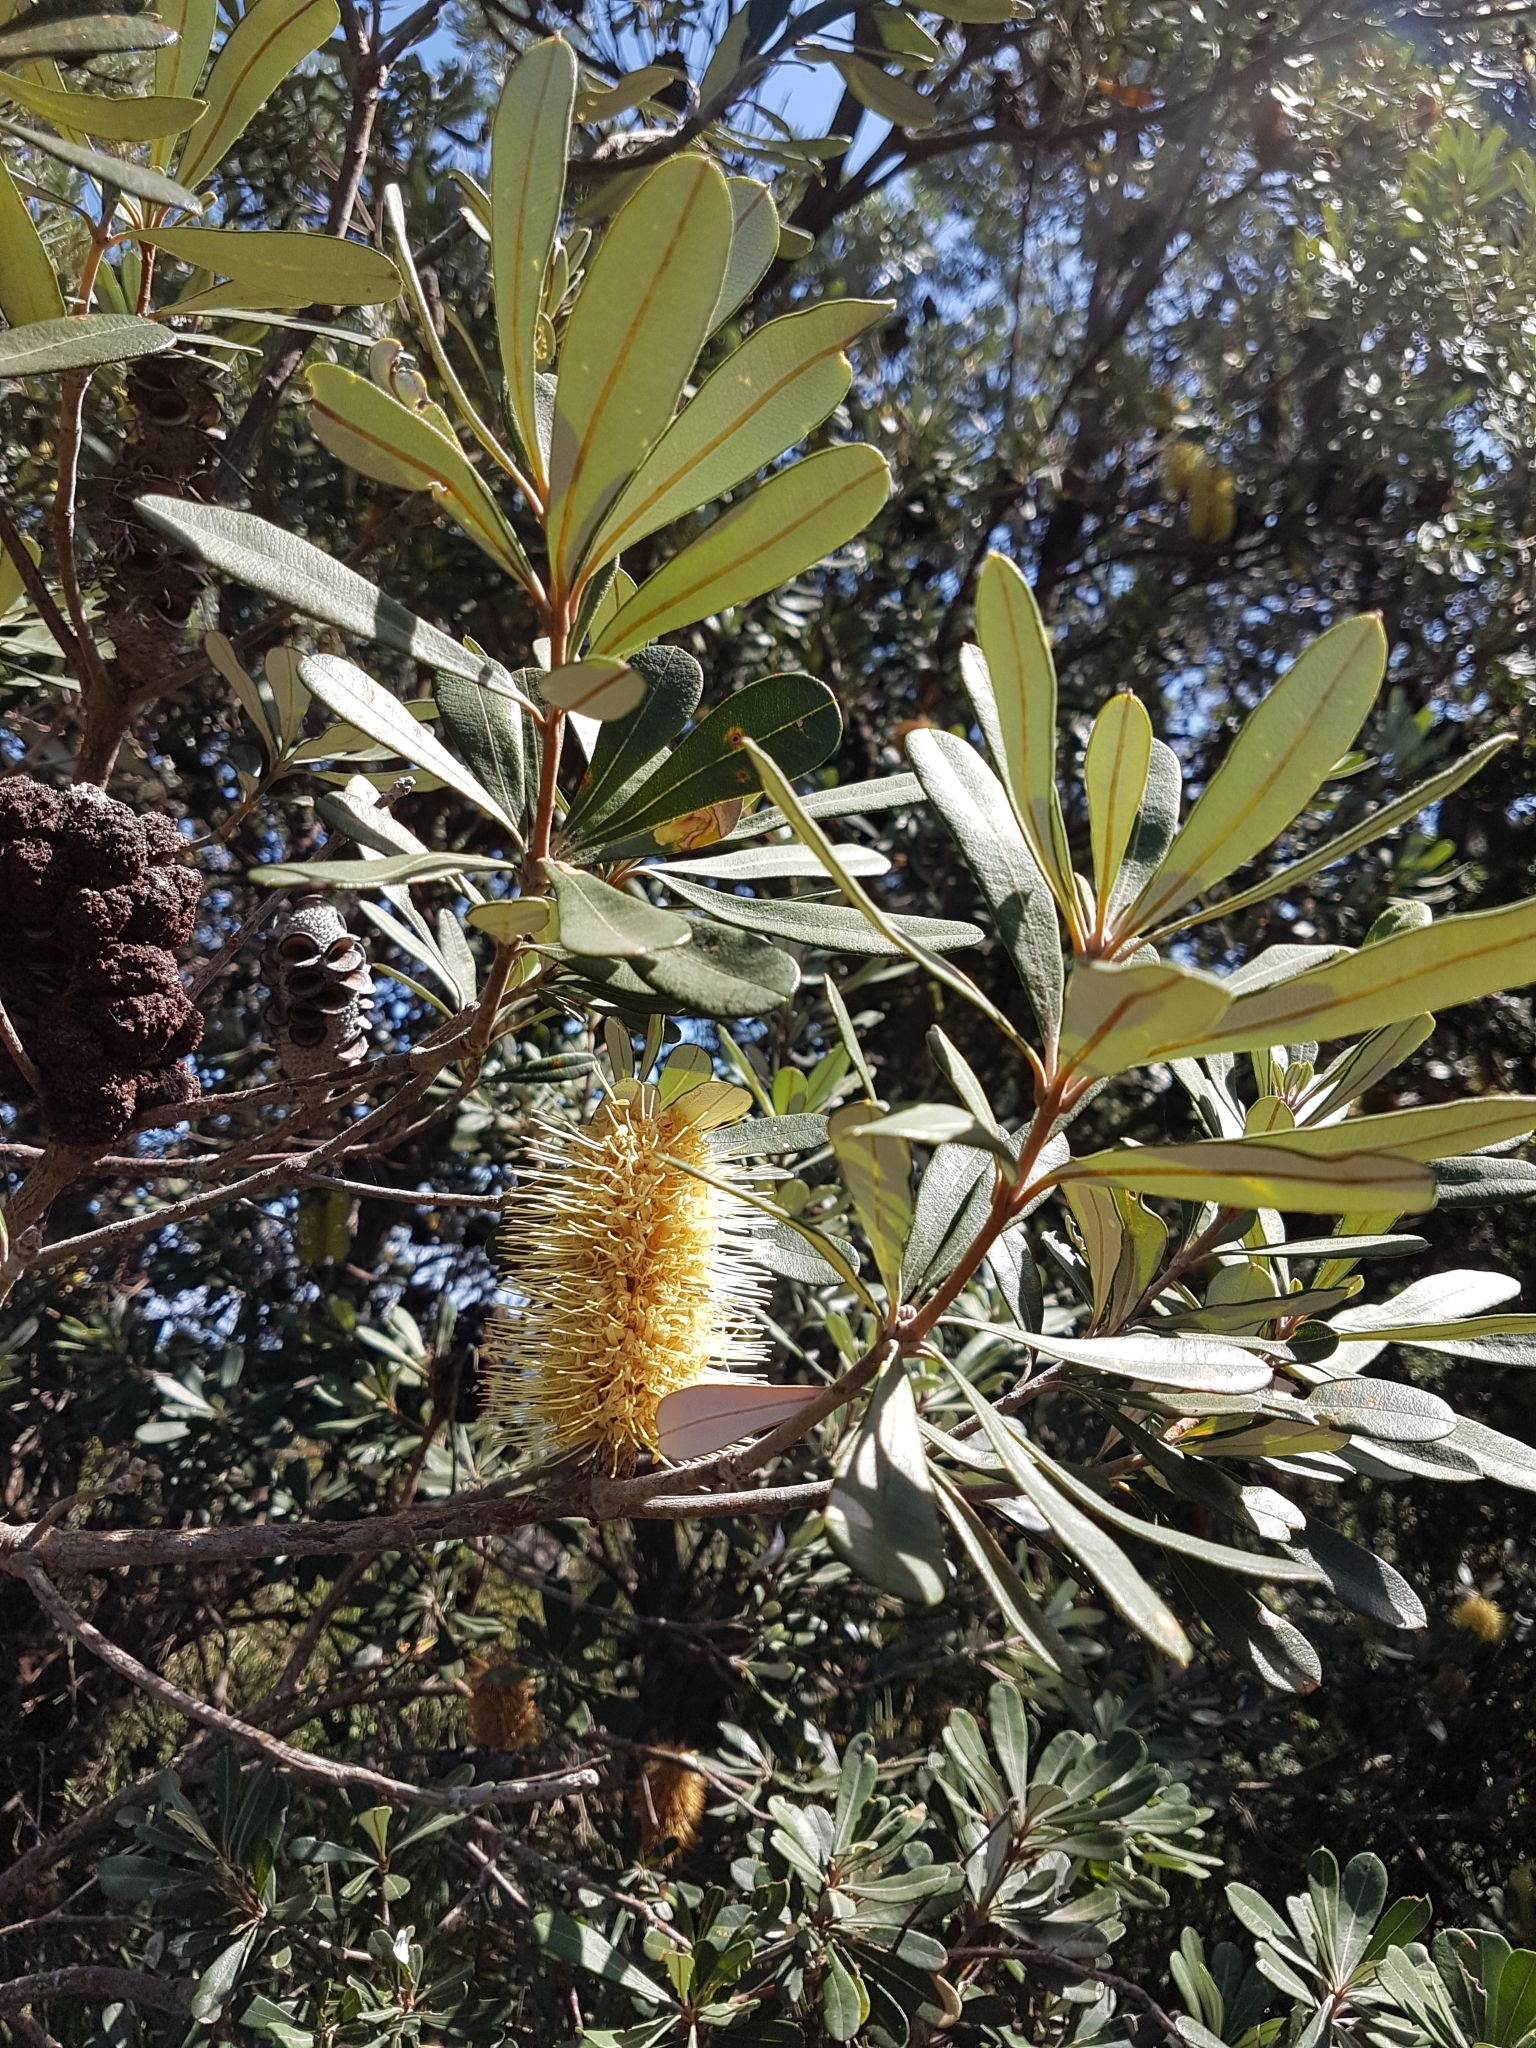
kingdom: Plantae
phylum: Tracheophyta
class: Magnoliopsida
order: Proteales
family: Proteaceae
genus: Banksia
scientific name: Banksia integrifolia
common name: White-honeysuckle
